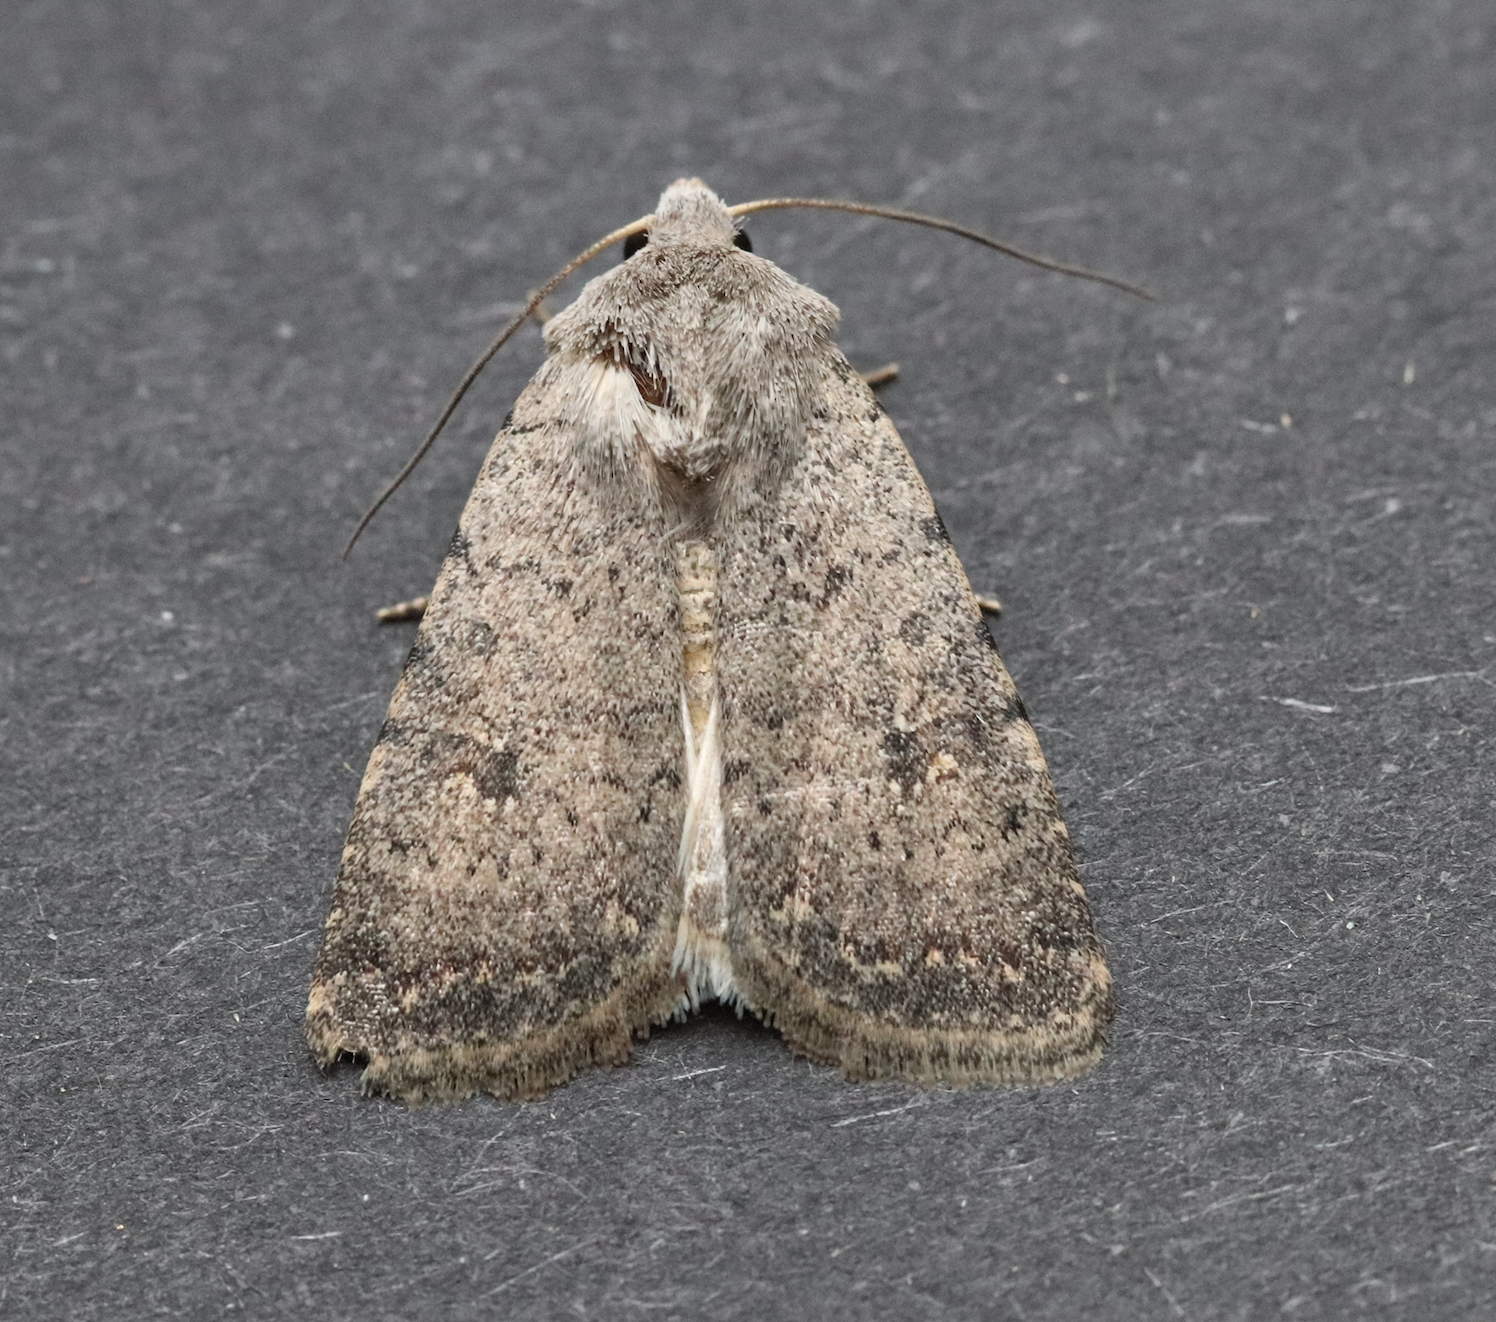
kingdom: Animalia
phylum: Arthropoda
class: Insecta
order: Lepidoptera
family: Noctuidae
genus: Caradrina
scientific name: Caradrina flavirena
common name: Lorimer's rustic
